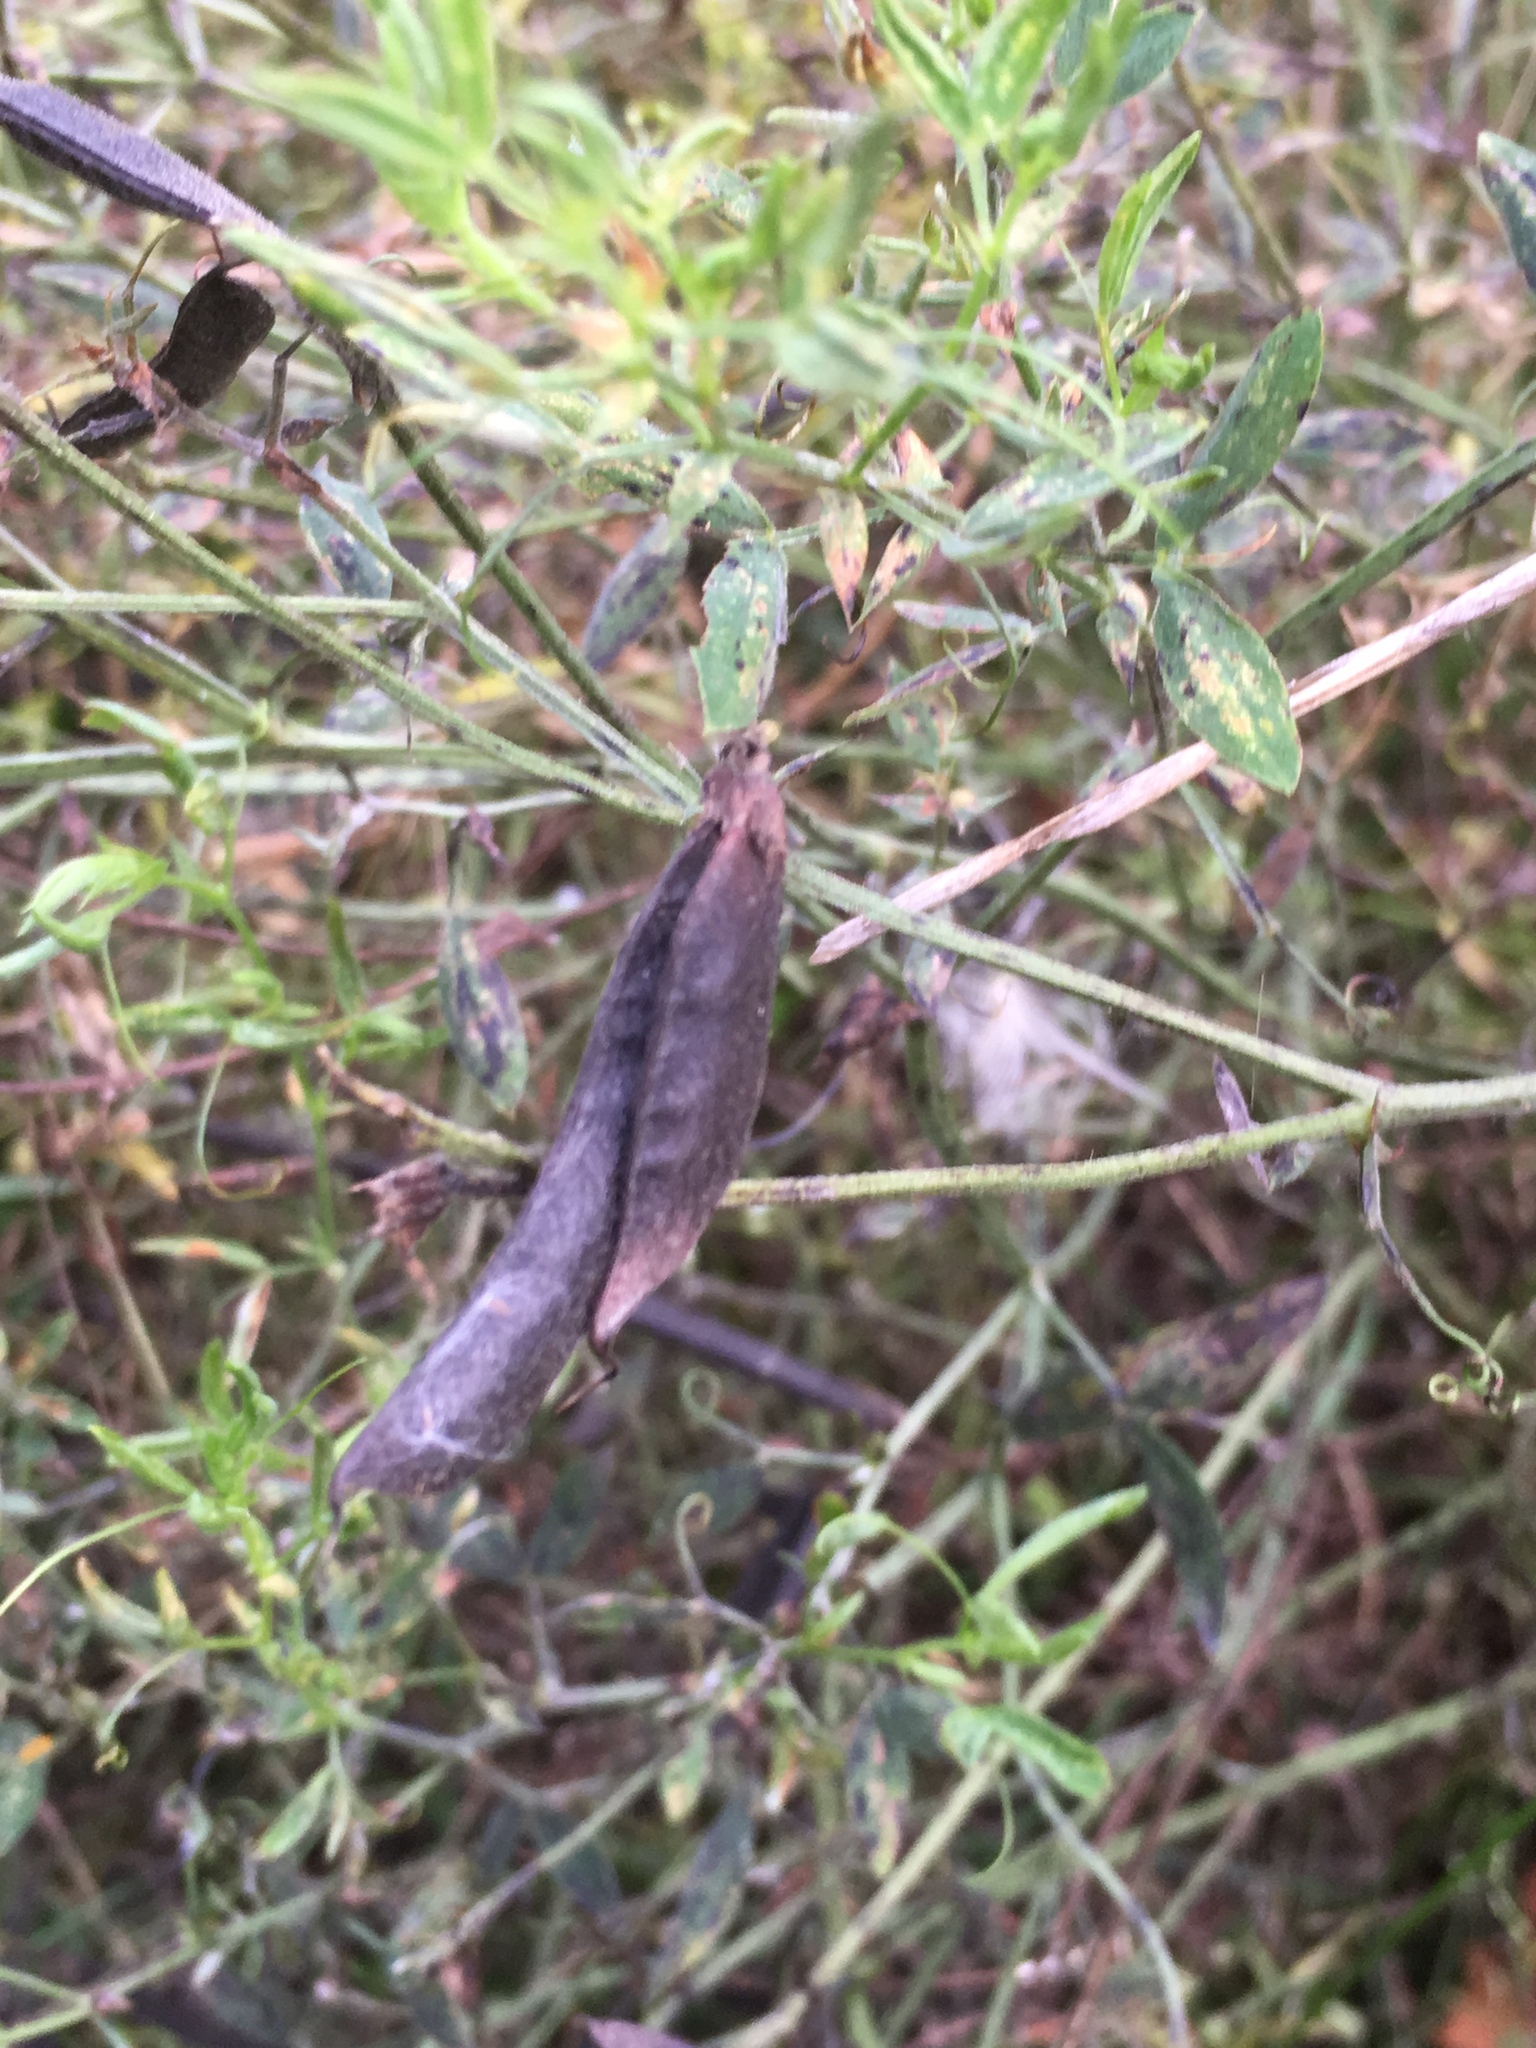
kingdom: Plantae
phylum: Tracheophyta
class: Magnoliopsida
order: Fabales
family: Fabaceae
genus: Cytisus
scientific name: Cytisus scoparius
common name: Scotch broom
